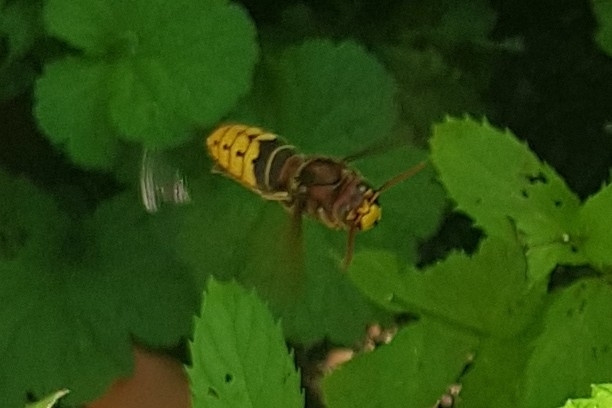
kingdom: Animalia
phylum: Arthropoda
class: Insecta
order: Hymenoptera
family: Vespidae
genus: Vespa
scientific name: Vespa crabro
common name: Hornet
